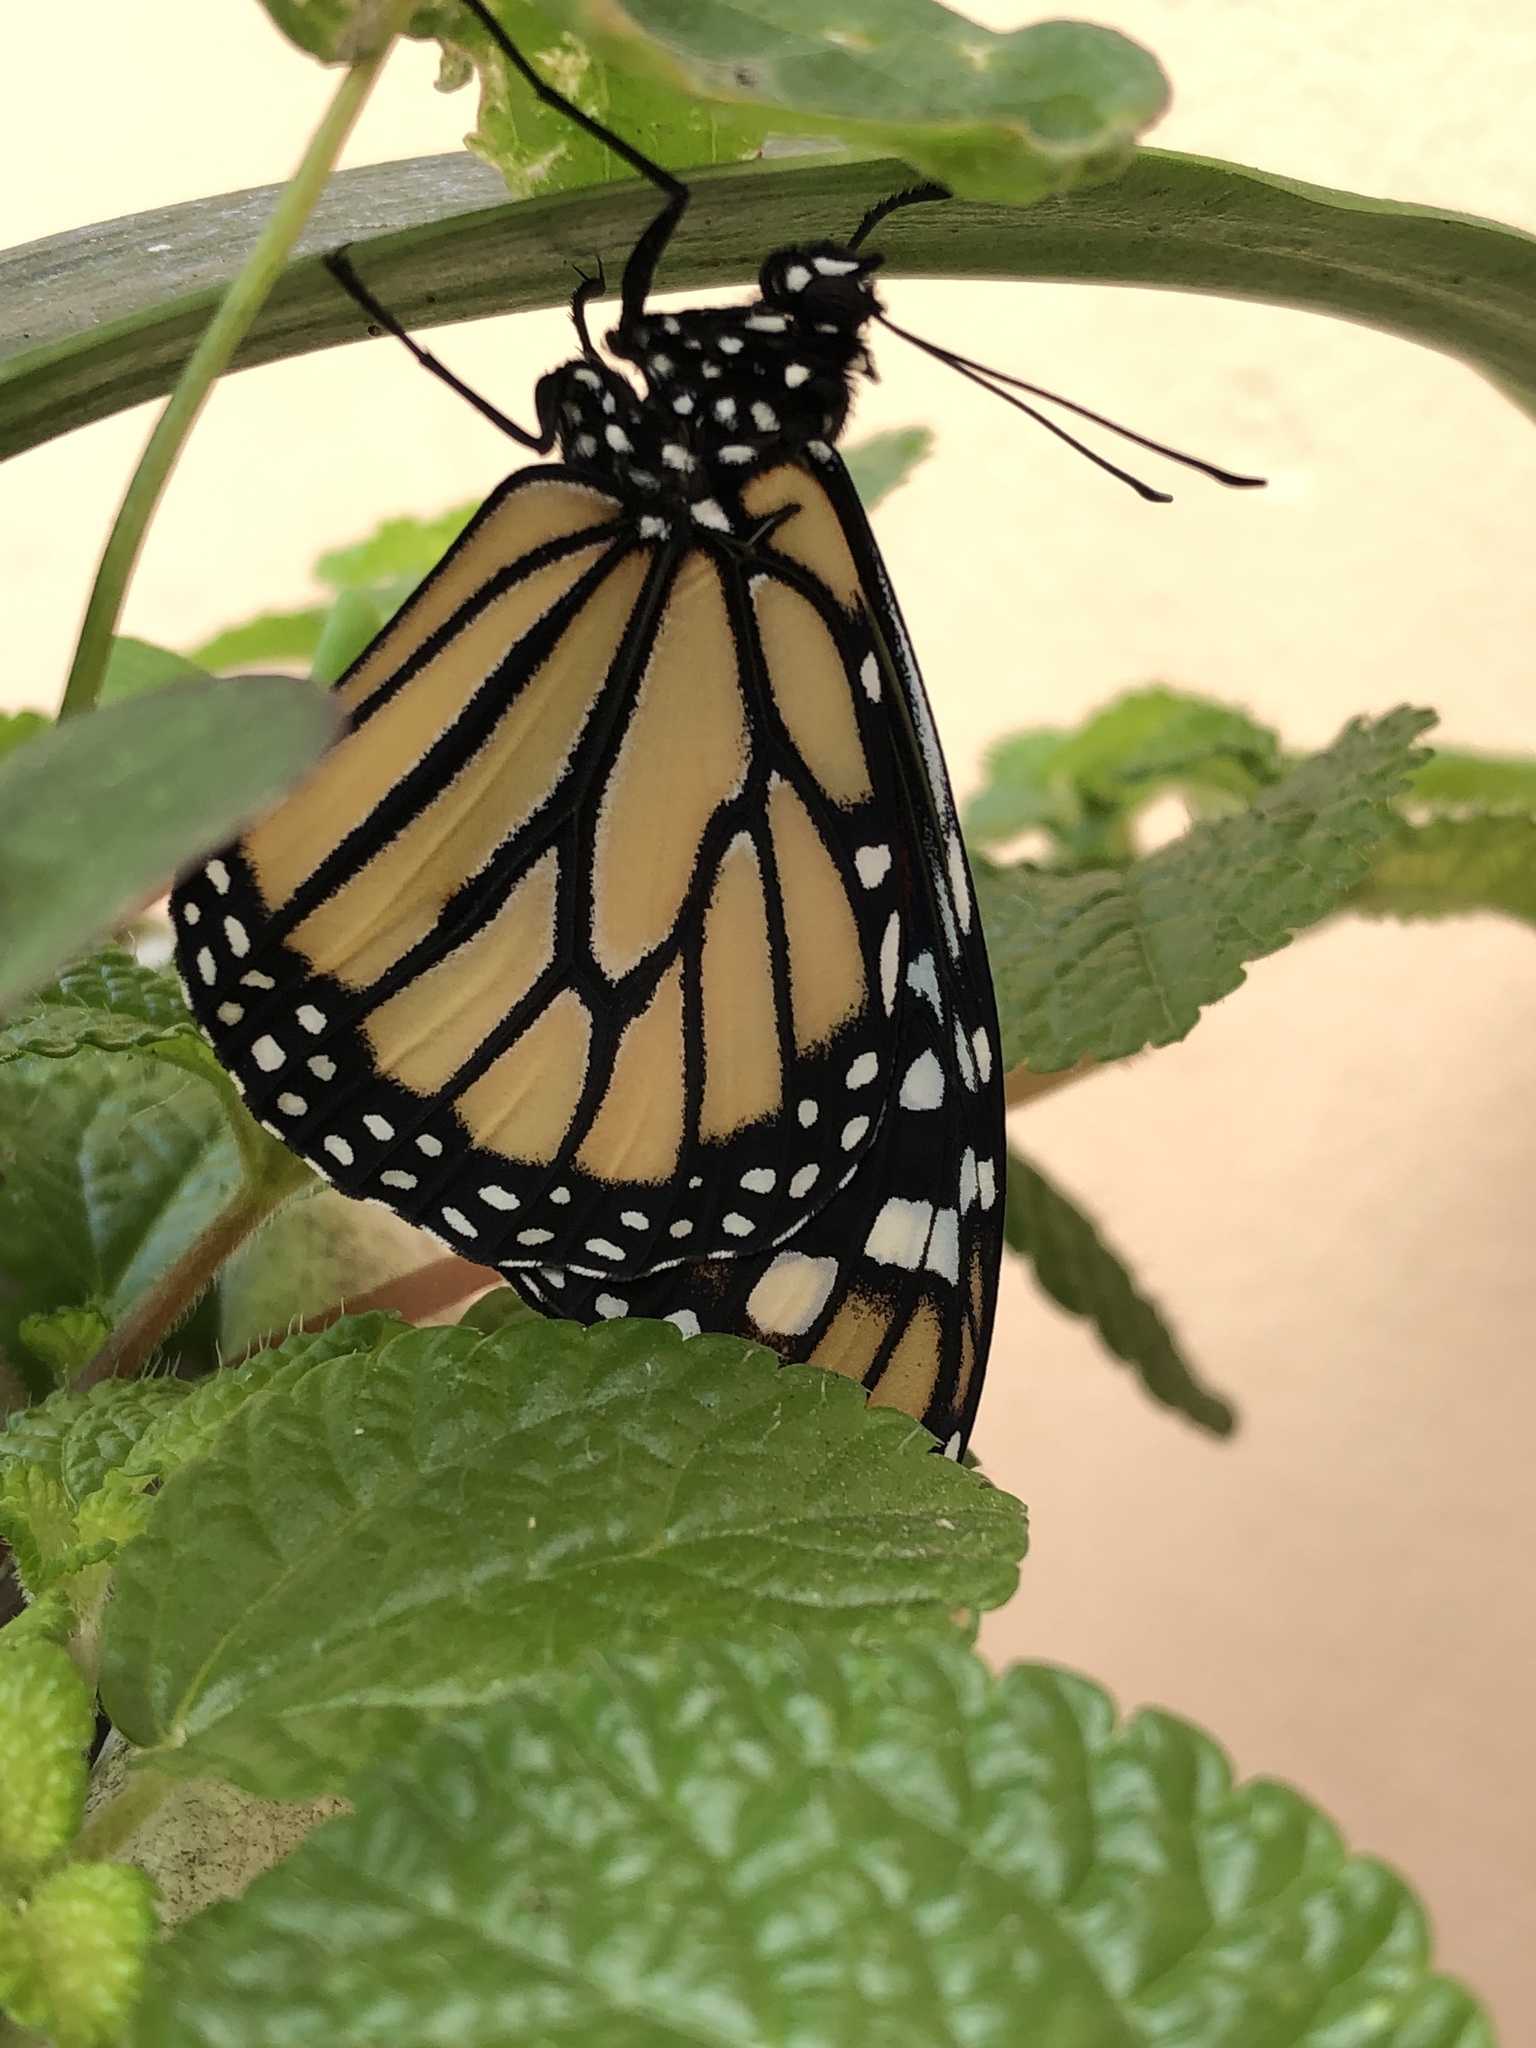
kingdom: Animalia
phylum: Arthropoda
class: Insecta
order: Lepidoptera
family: Nymphalidae
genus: Danaus
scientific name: Danaus plexippus
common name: Monarch
